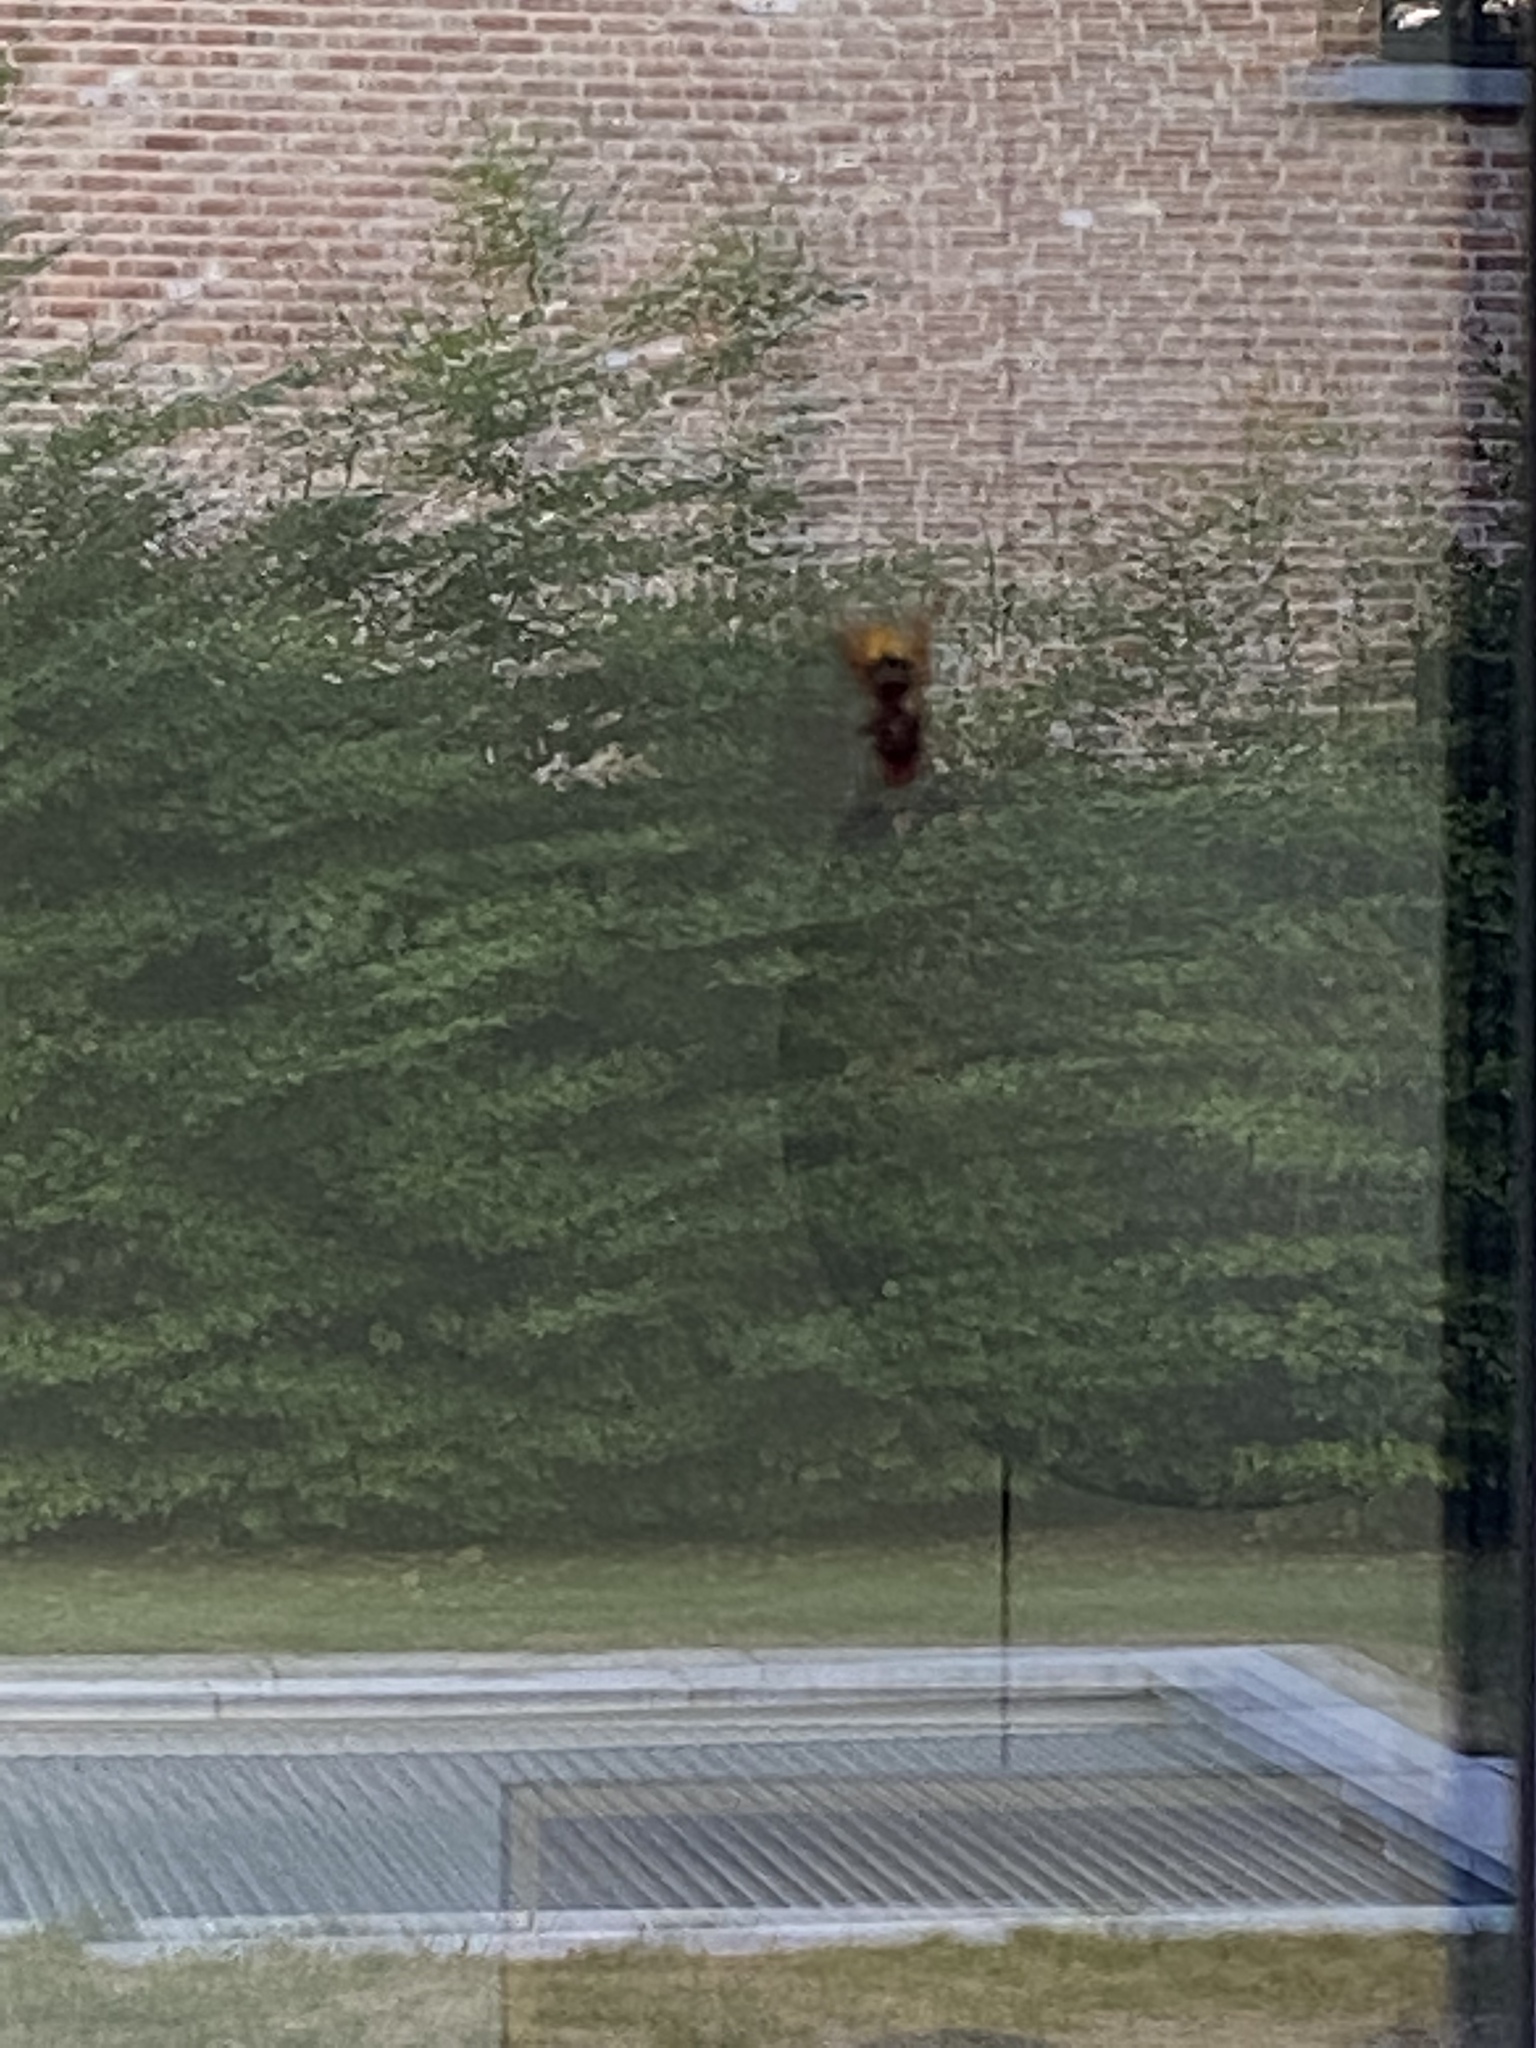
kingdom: Animalia
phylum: Arthropoda
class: Insecta
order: Hymenoptera
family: Vespidae
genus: Vespa
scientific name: Vespa crabro
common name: Hornet
